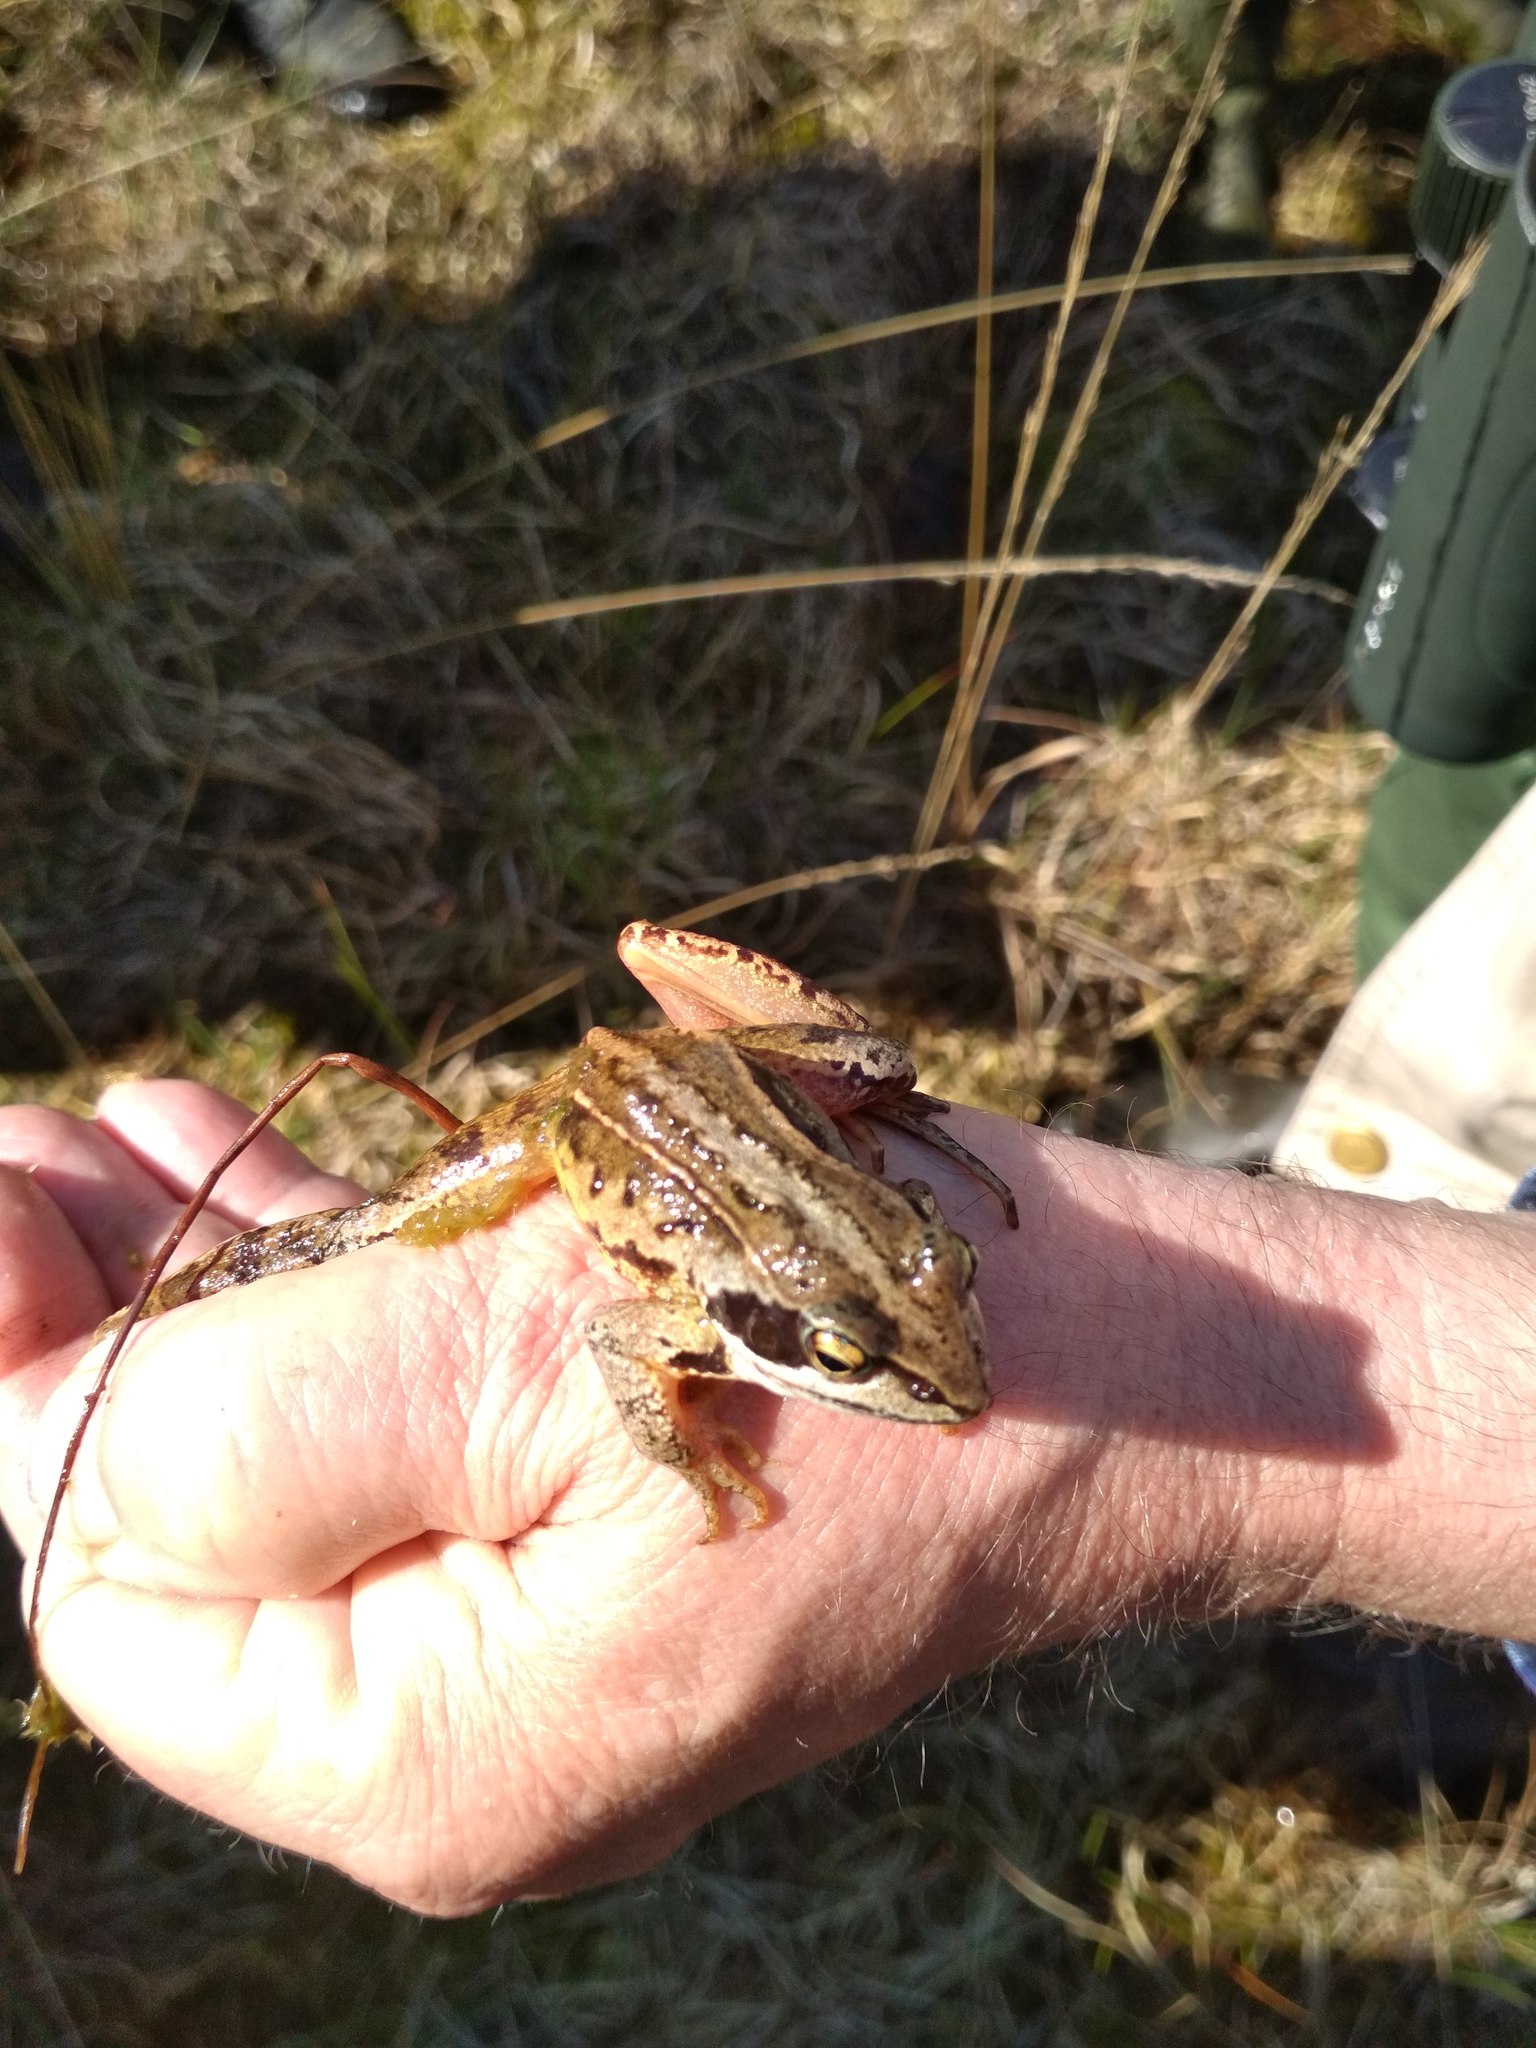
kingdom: Animalia
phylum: Chordata
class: Amphibia
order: Anura
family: Ranidae
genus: Rana
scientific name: Rana arvalis
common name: Moor frog
